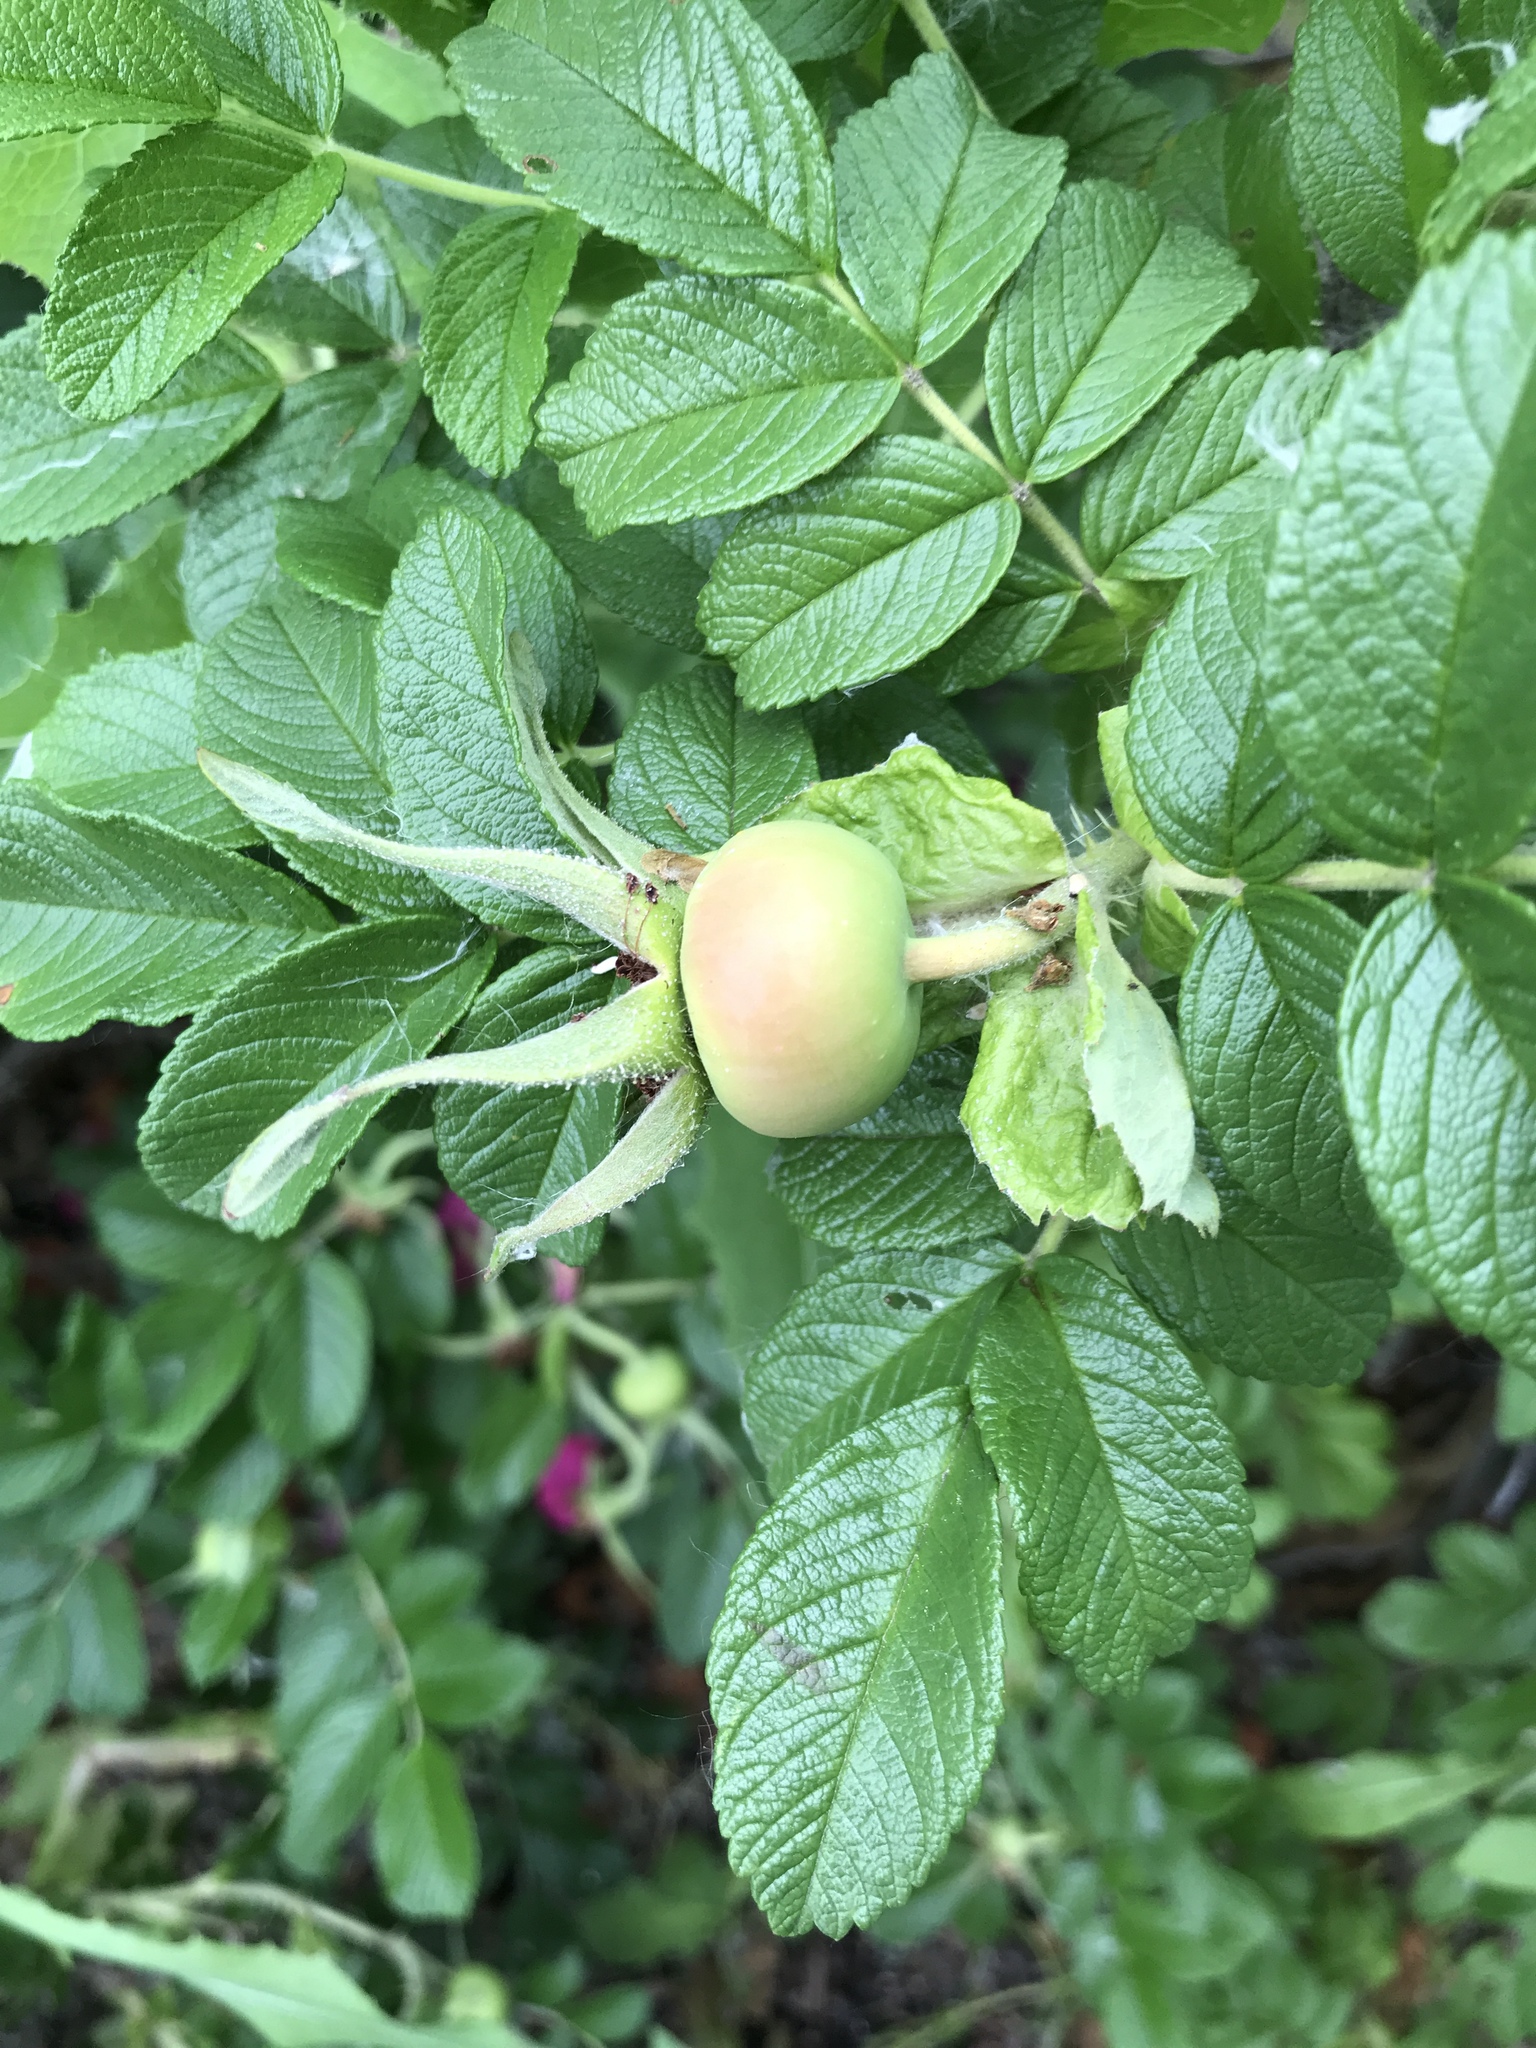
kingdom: Plantae
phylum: Tracheophyta
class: Magnoliopsida
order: Rosales
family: Rosaceae
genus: Rosa
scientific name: Rosa rugosa
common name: Japanese rose
